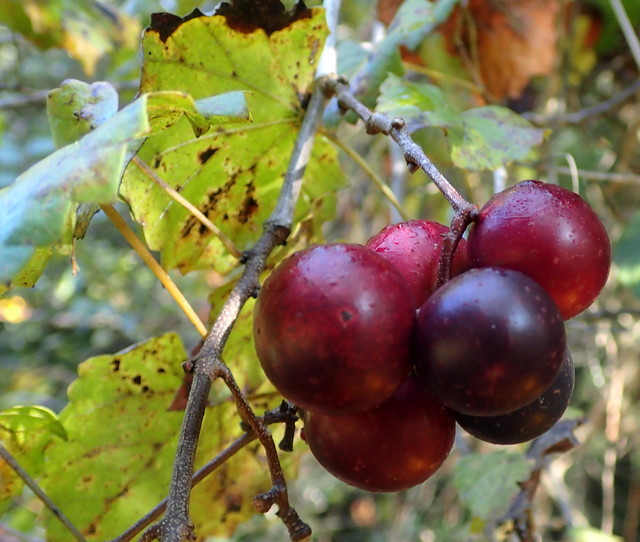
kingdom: Plantae
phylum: Tracheophyta
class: Magnoliopsida
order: Vitales
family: Vitaceae
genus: Vitis
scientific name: Vitis rotundifolia
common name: Muscadine grape
